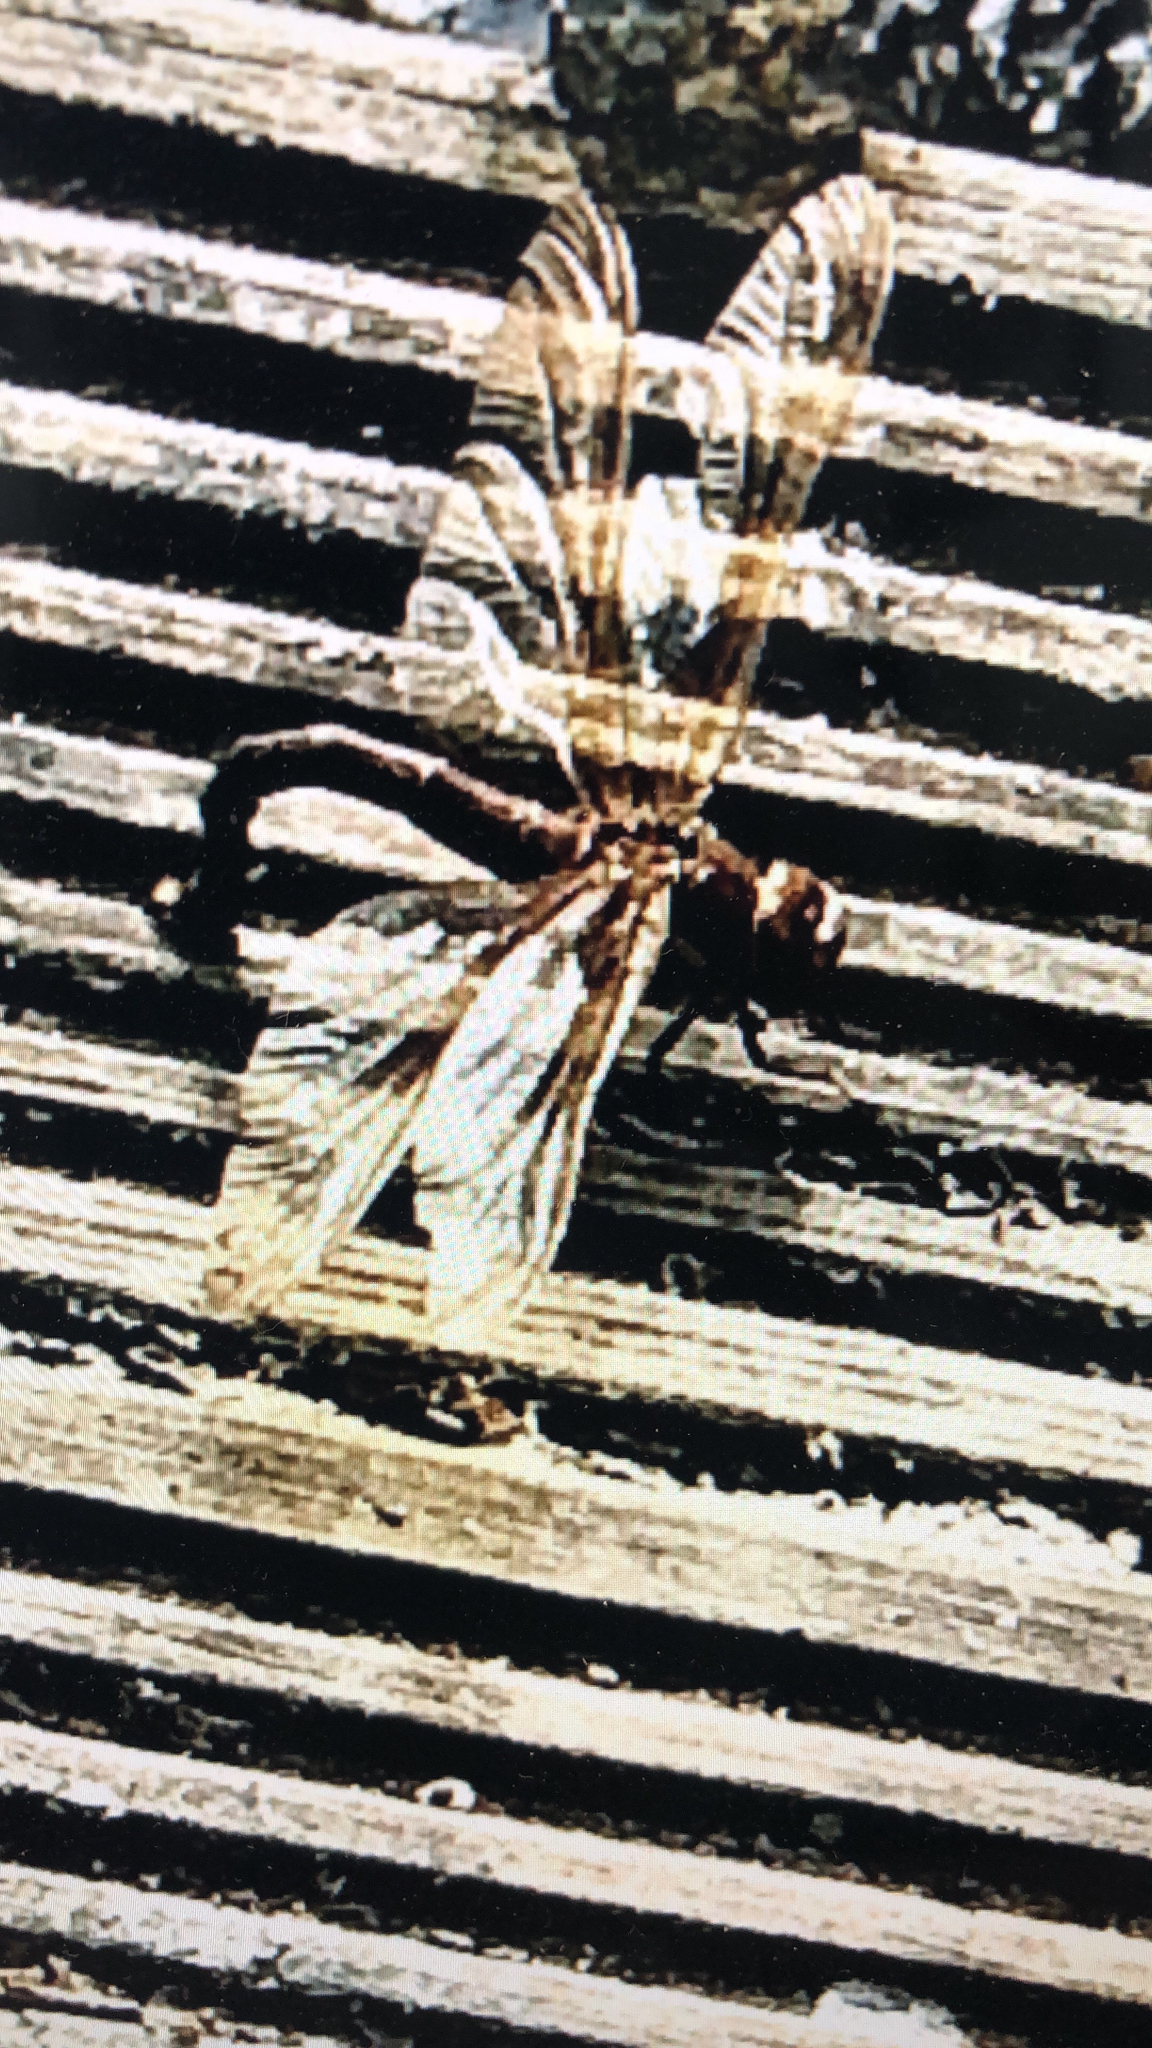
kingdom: Animalia
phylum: Arthropoda
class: Insecta
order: Odonata
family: Aeshnidae
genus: Aeshna
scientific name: Aeshna grandis
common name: Brown hawker
